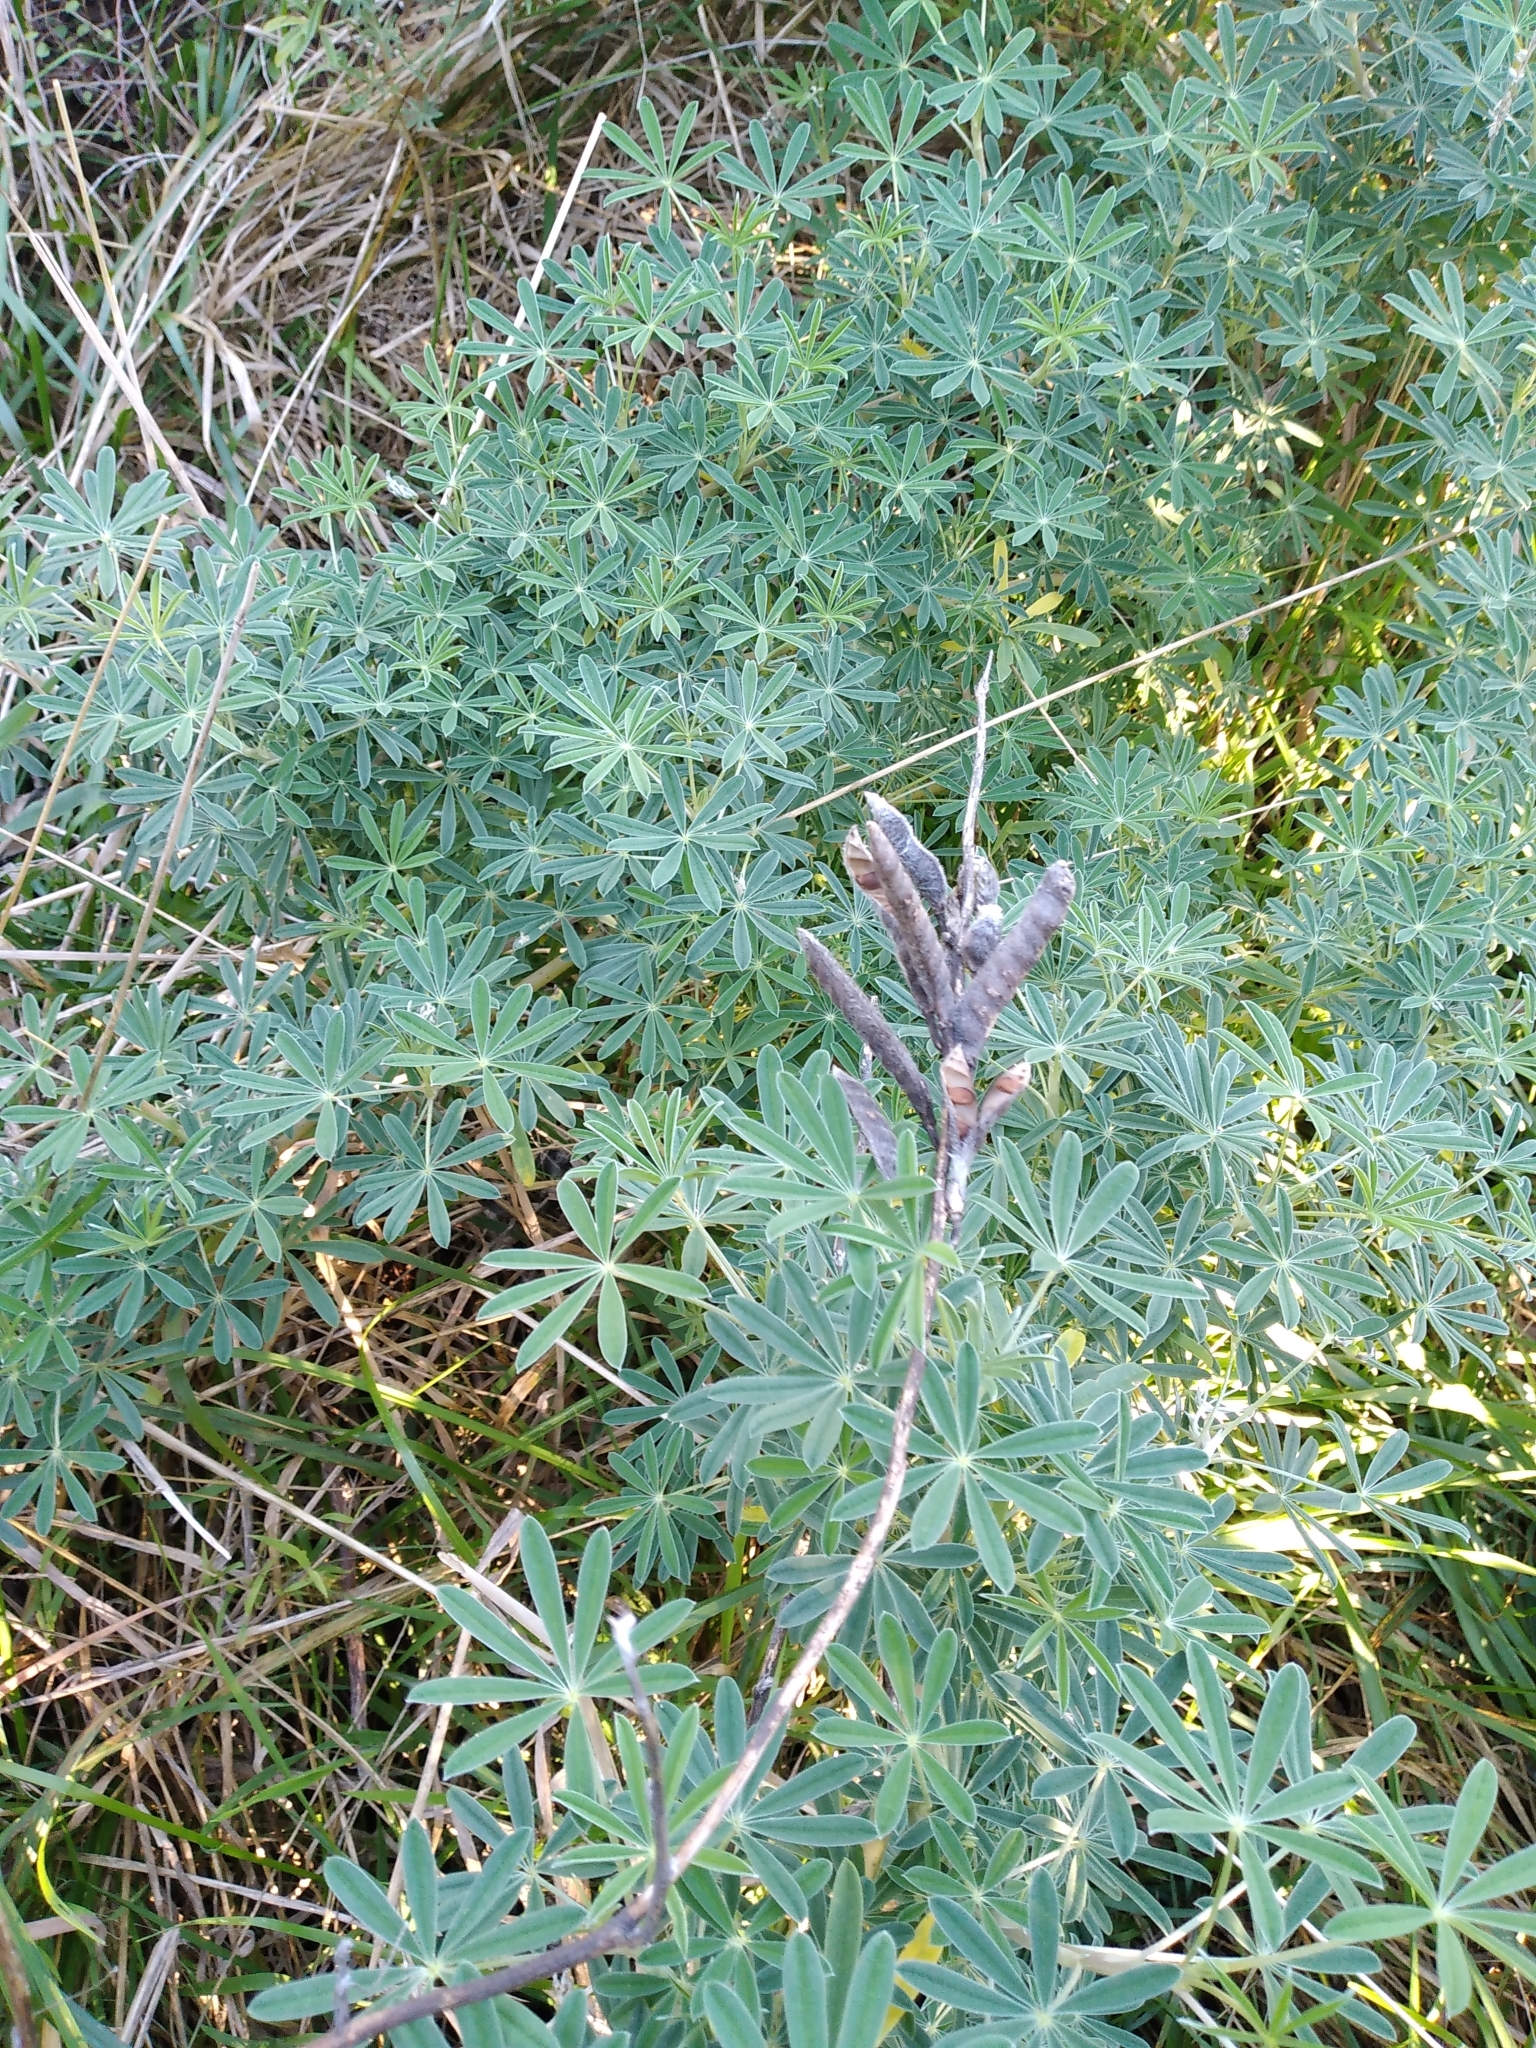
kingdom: Plantae
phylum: Tracheophyta
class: Magnoliopsida
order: Fabales
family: Fabaceae
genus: Lupinus
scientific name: Lupinus arboreus
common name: Yellow bush lupine
